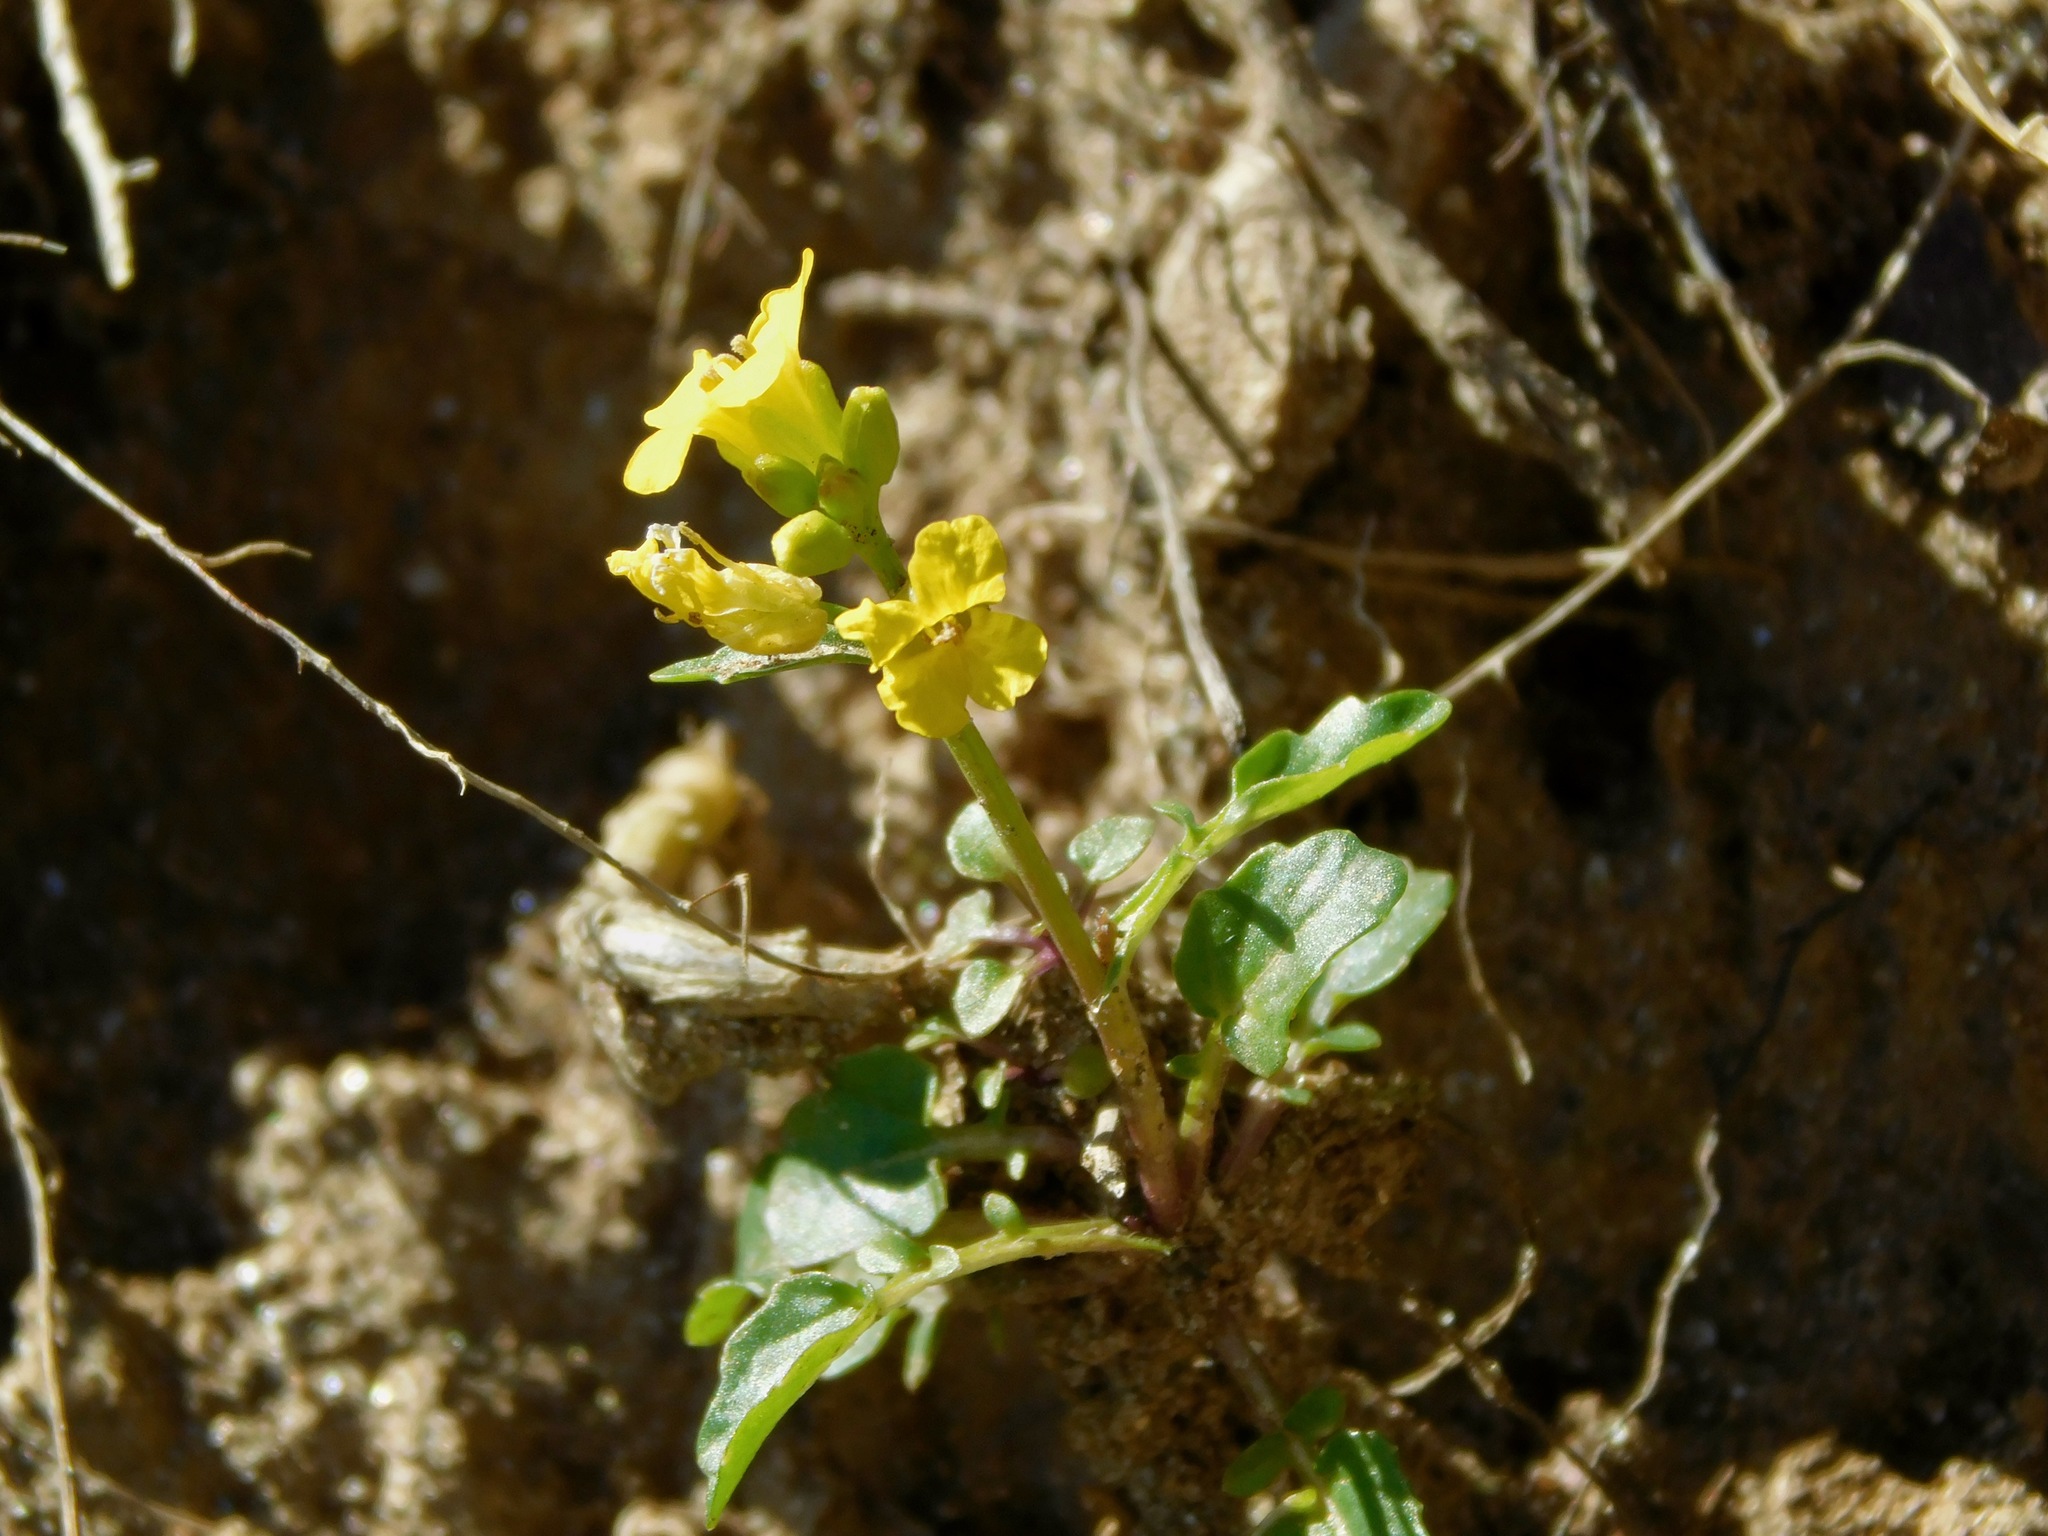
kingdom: Plantae
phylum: Tracheophyta
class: Magnoliopsida
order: Brassicales
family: Brassicaceae
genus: Barbarea
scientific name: Barbarea vulgaris
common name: Cressy-greens
